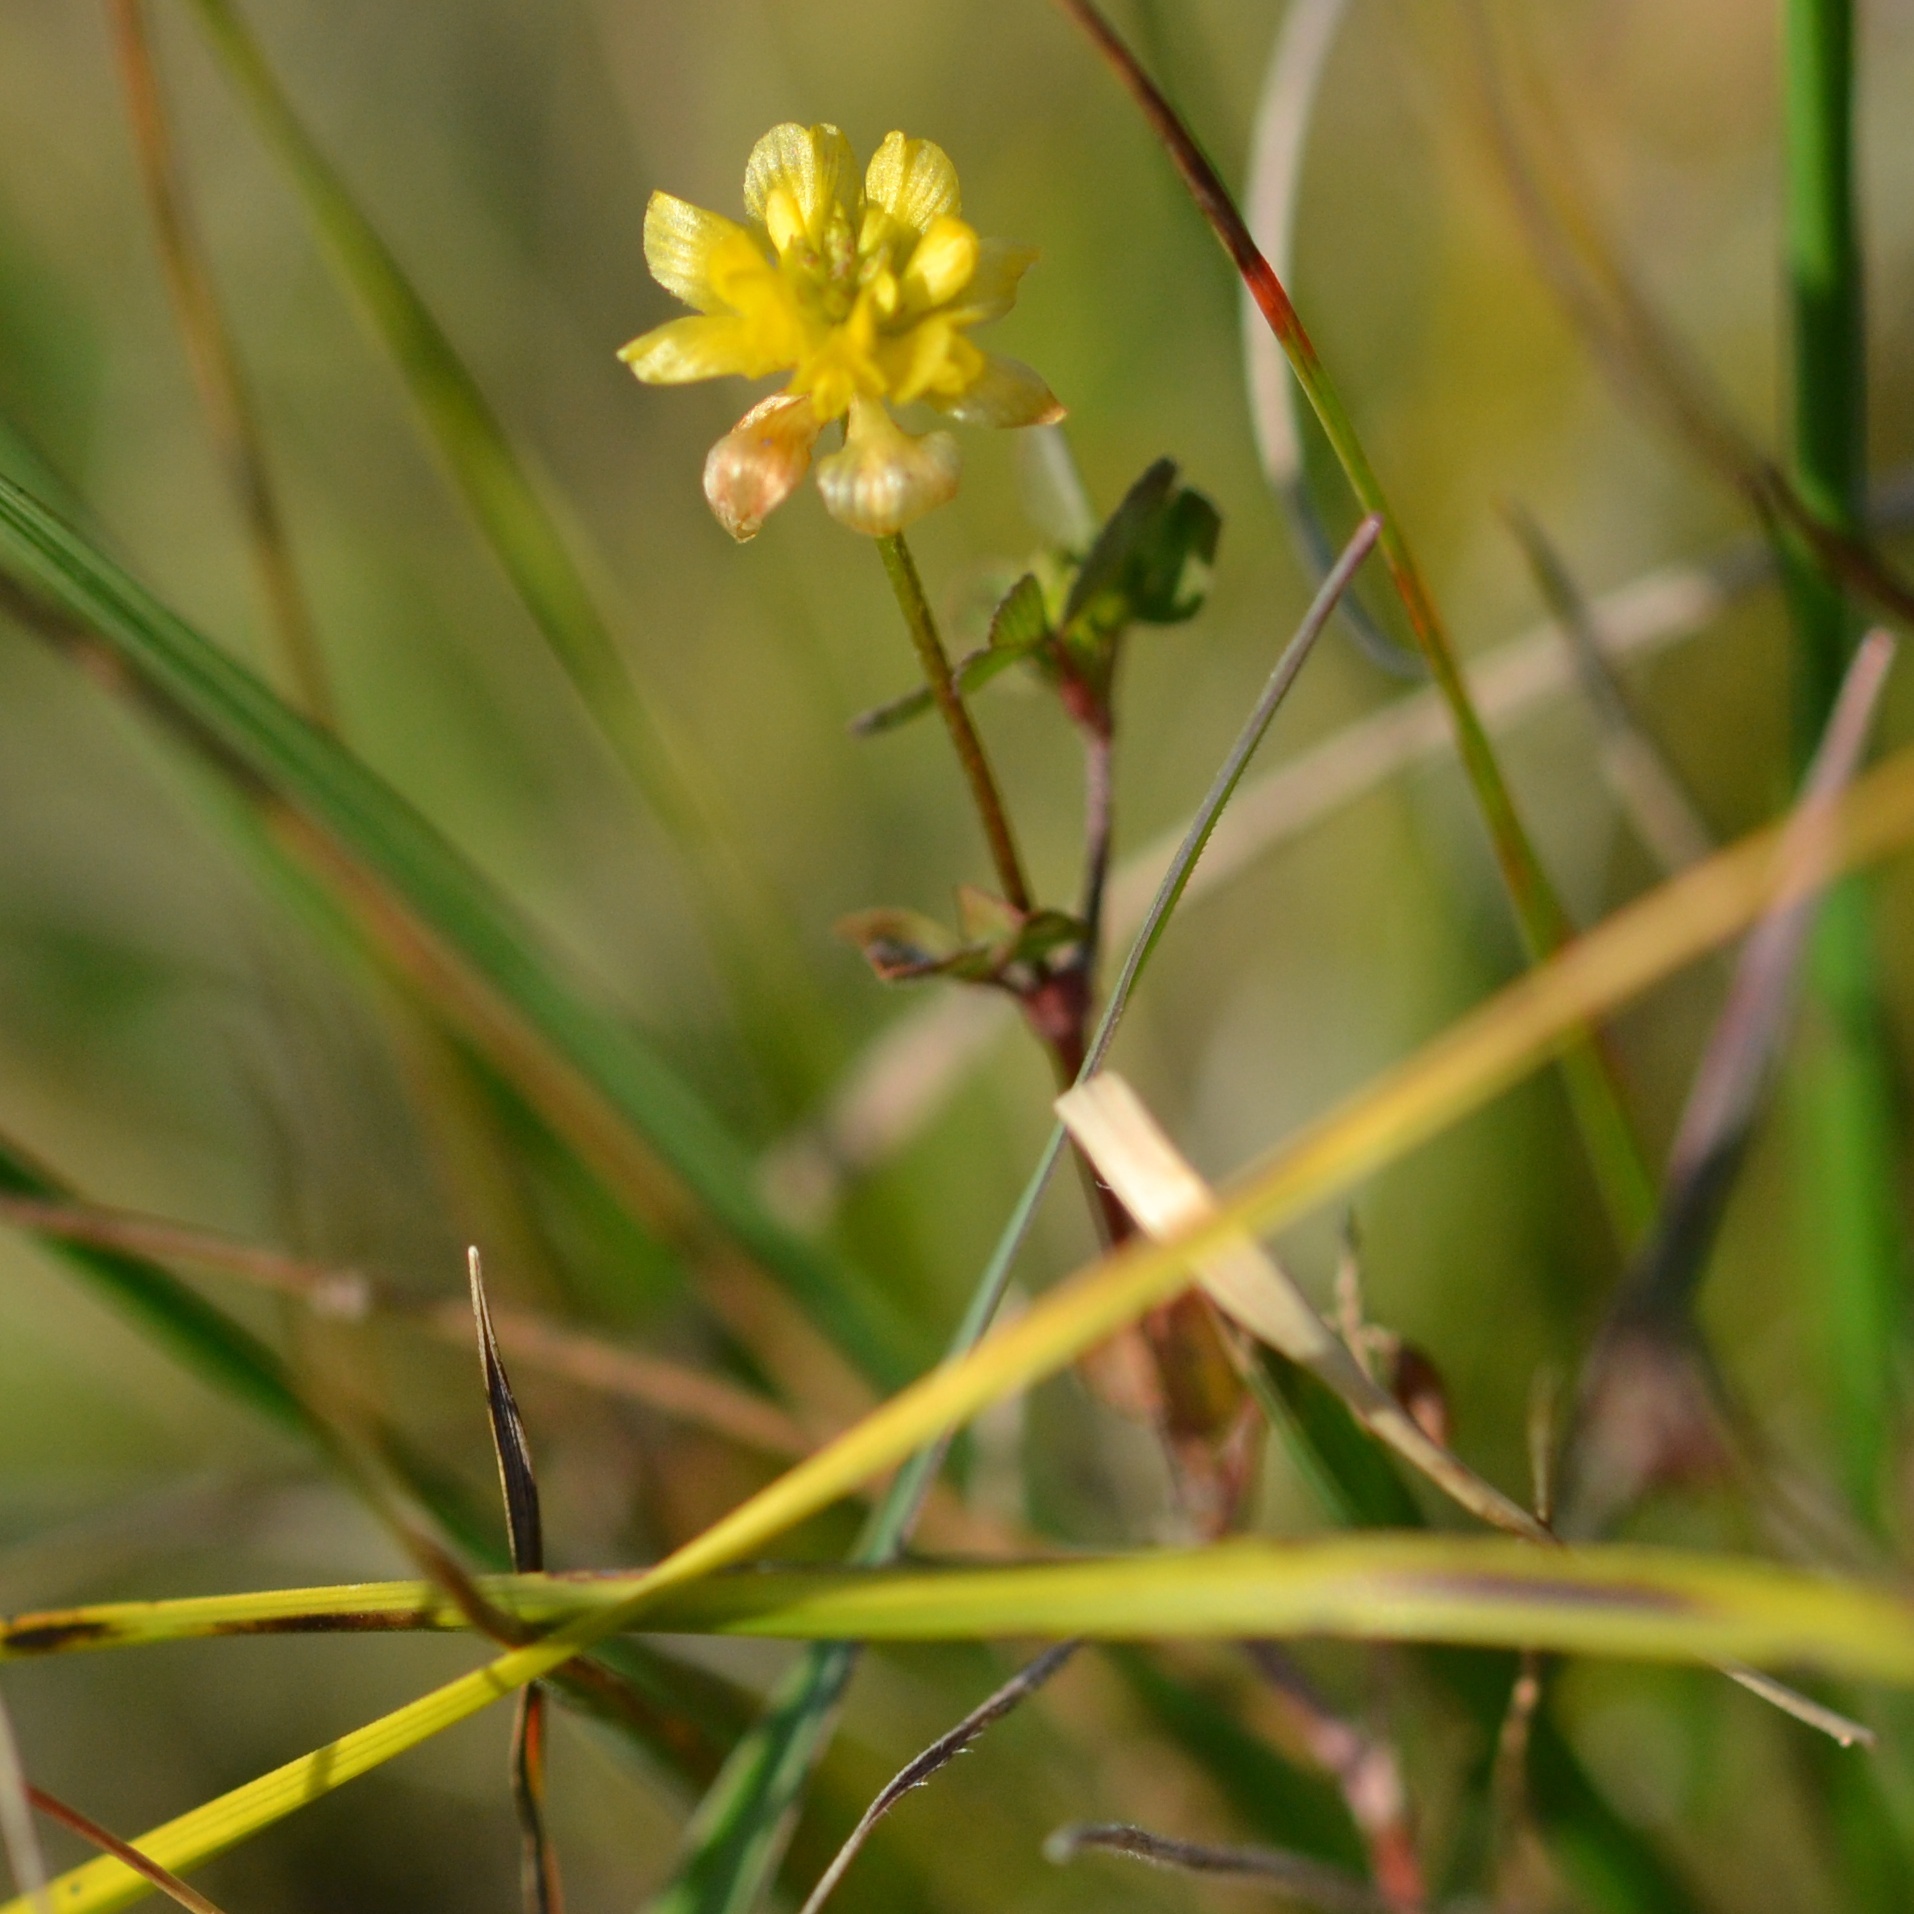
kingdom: Plantae
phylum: Tracheophyta
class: Magnoliopsida
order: Fabales
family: Fabaceae
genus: Trifolium
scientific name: Trifolium campestre
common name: Field clover
